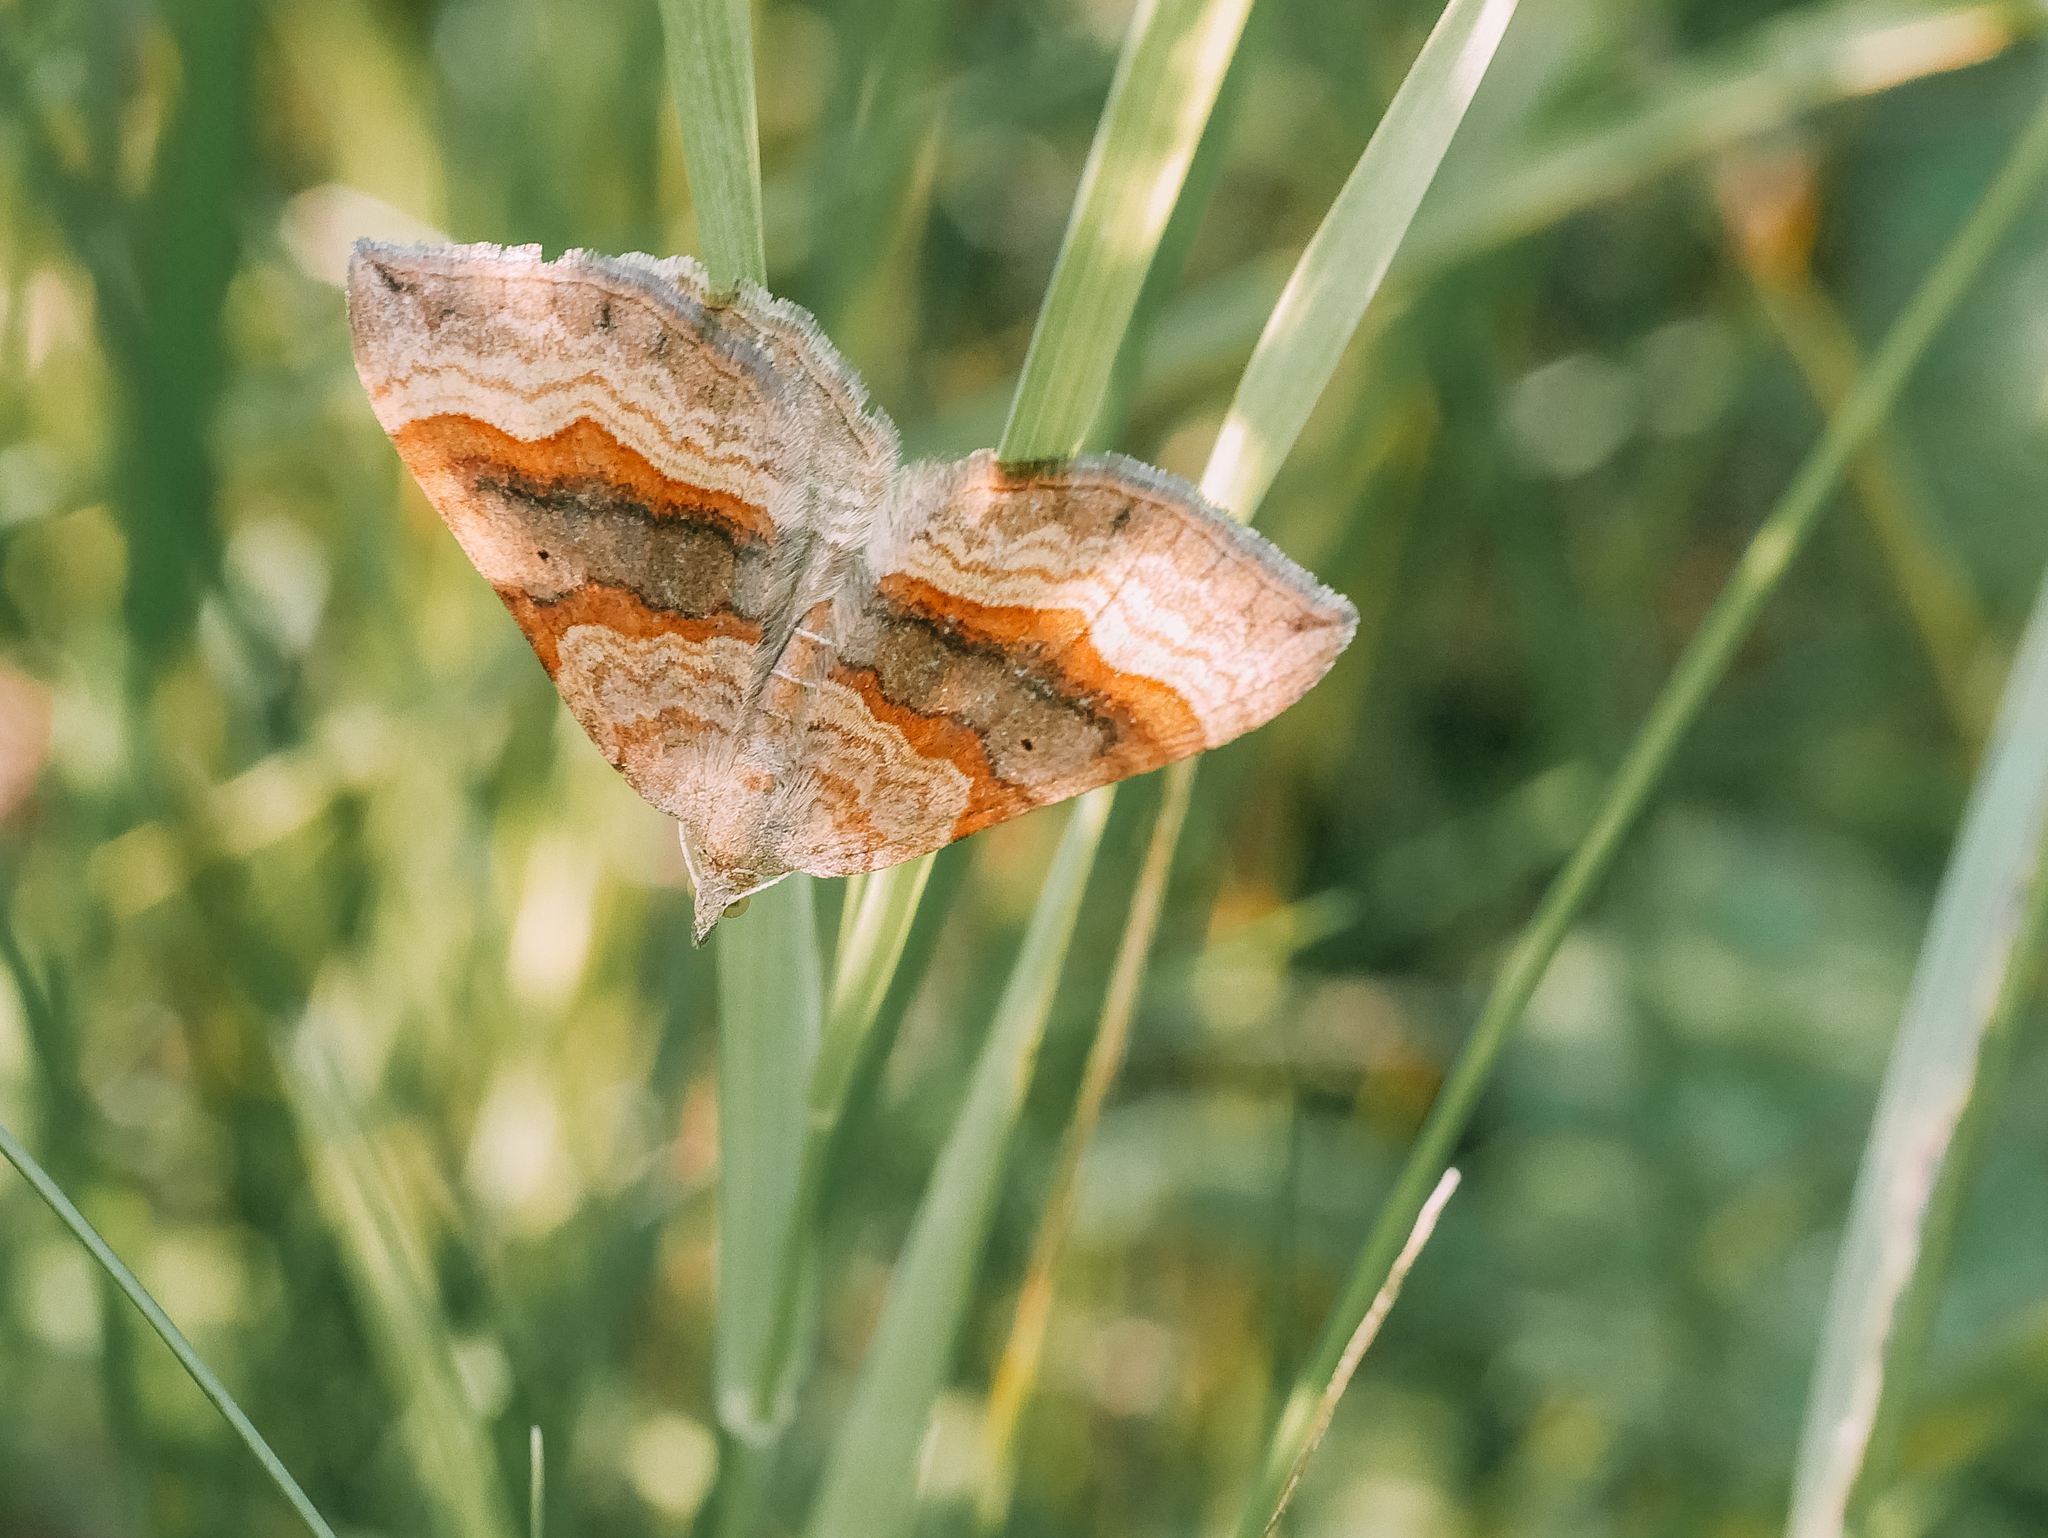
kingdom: Animalia
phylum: Arthropoda
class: Insecta
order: Lepidoptera
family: Geometridae
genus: Scotopteryx
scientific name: Scotopteryx chenopodiata
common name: Shaded broad-bar
